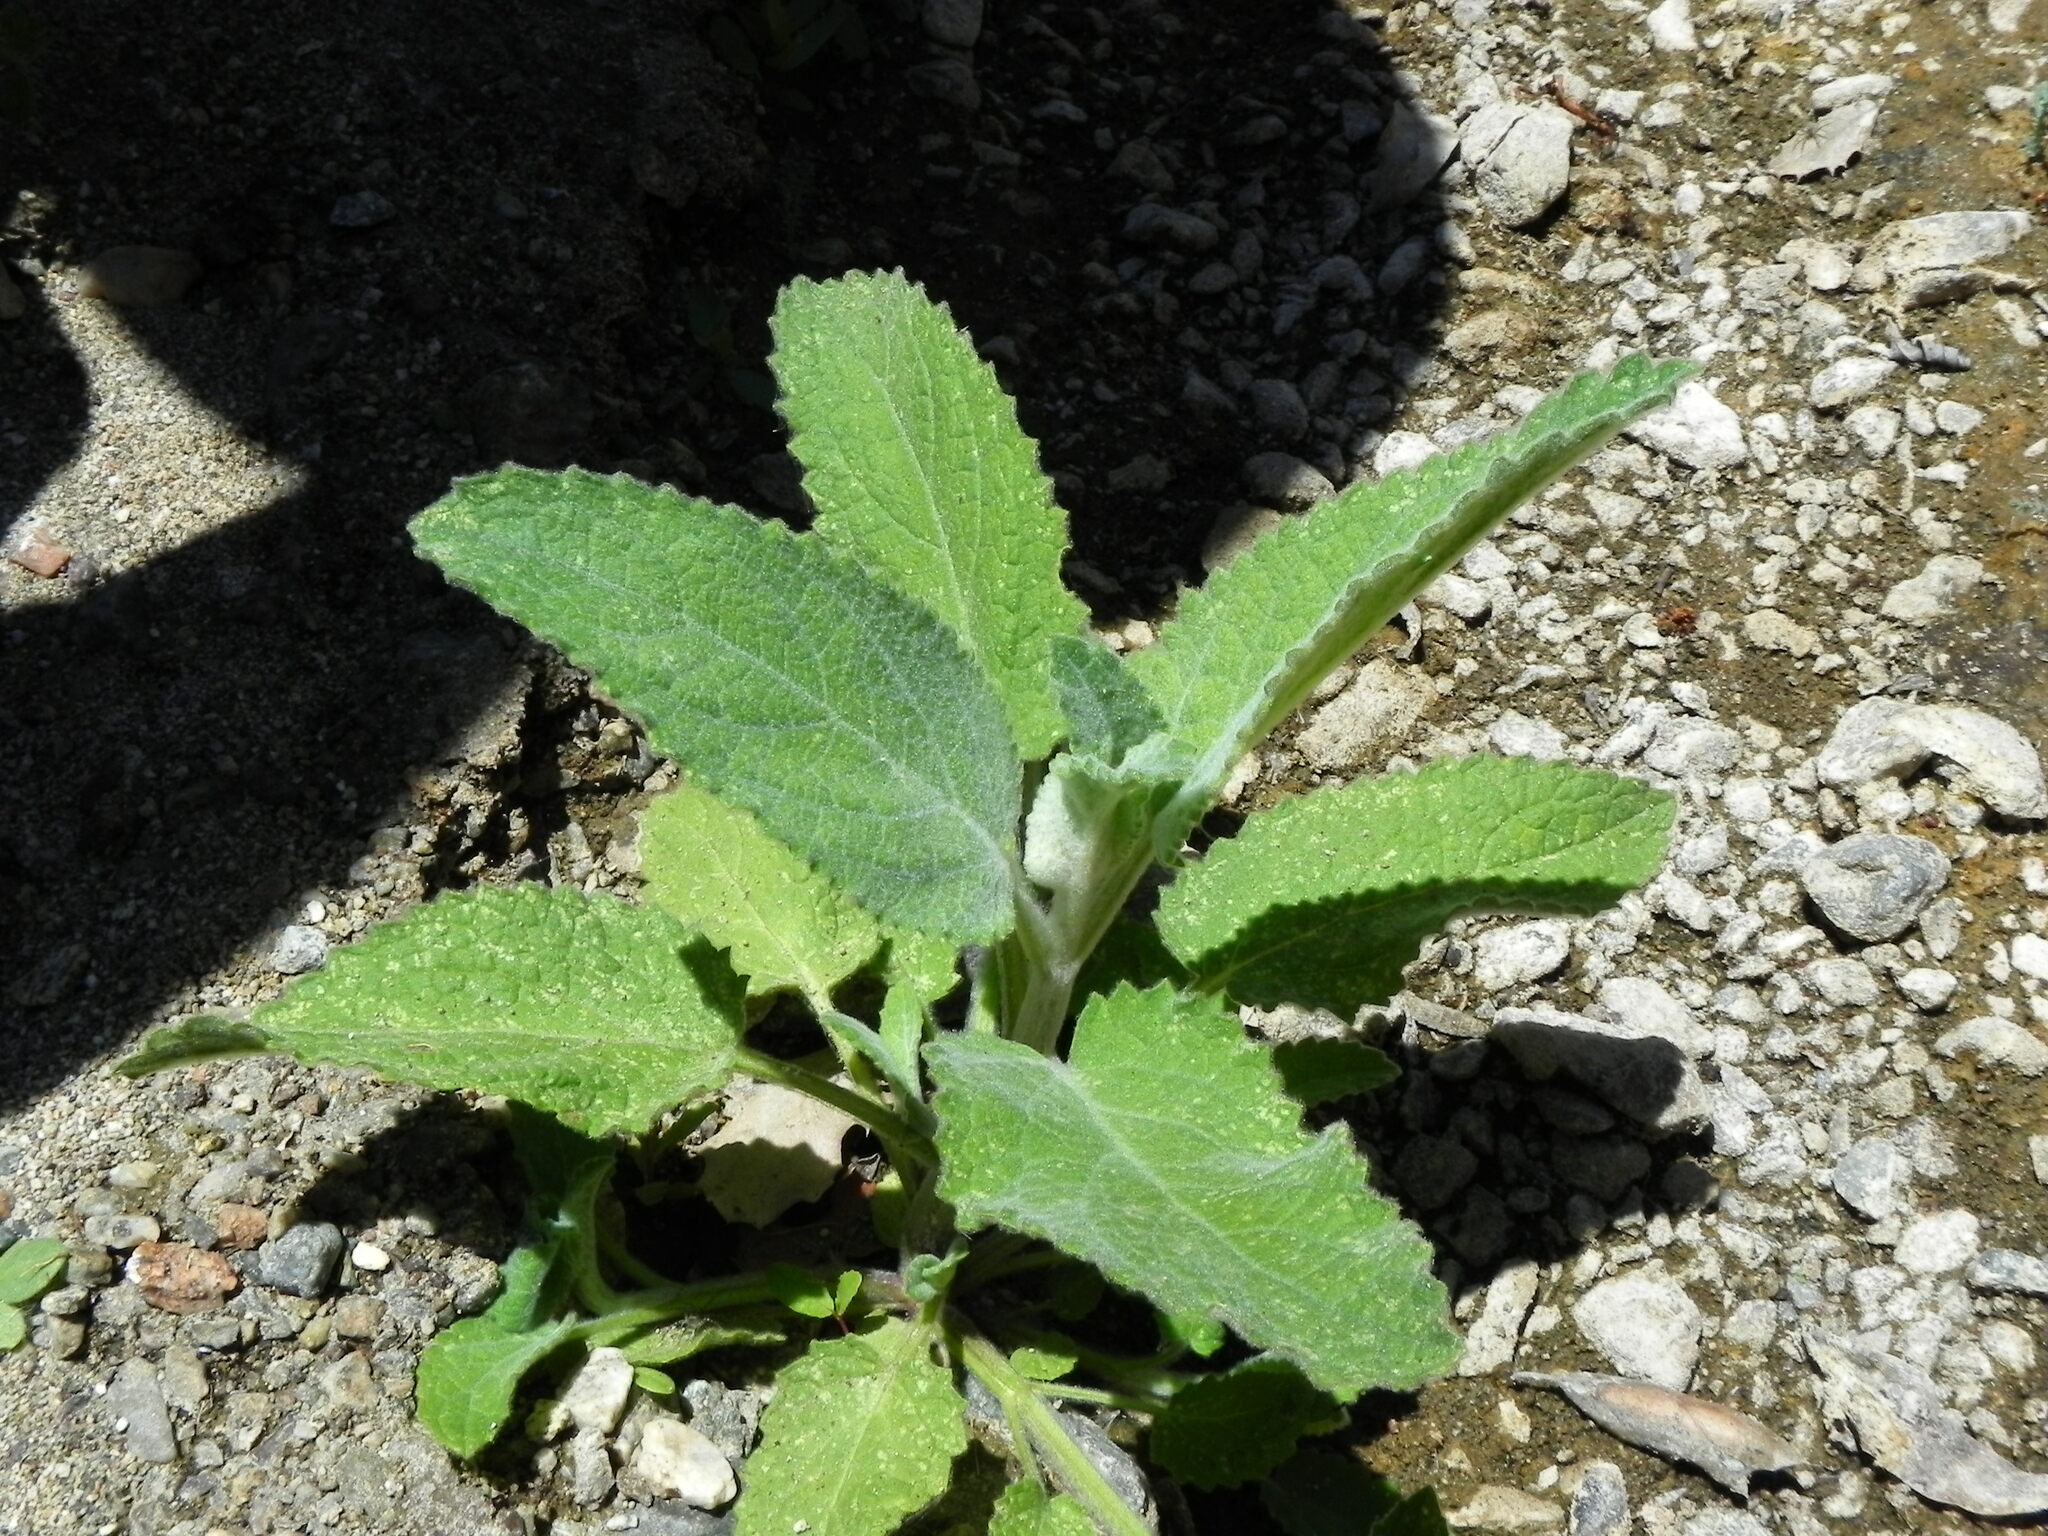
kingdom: Plantae
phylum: Tracheophyta
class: Magnoliopsida
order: Lamiales
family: Lamiaceae
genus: Stachys
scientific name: Stachys albens
